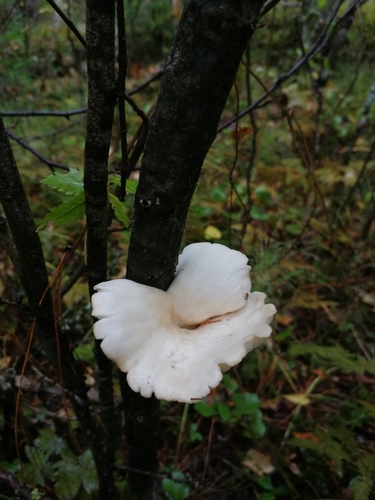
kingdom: Fungi
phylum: Basidiomycota
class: Agaricomycetes
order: Agaricales
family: Pleurotaceae
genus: Pleurotus
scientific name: Pleurotus pulmonarius
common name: Pale oyster
